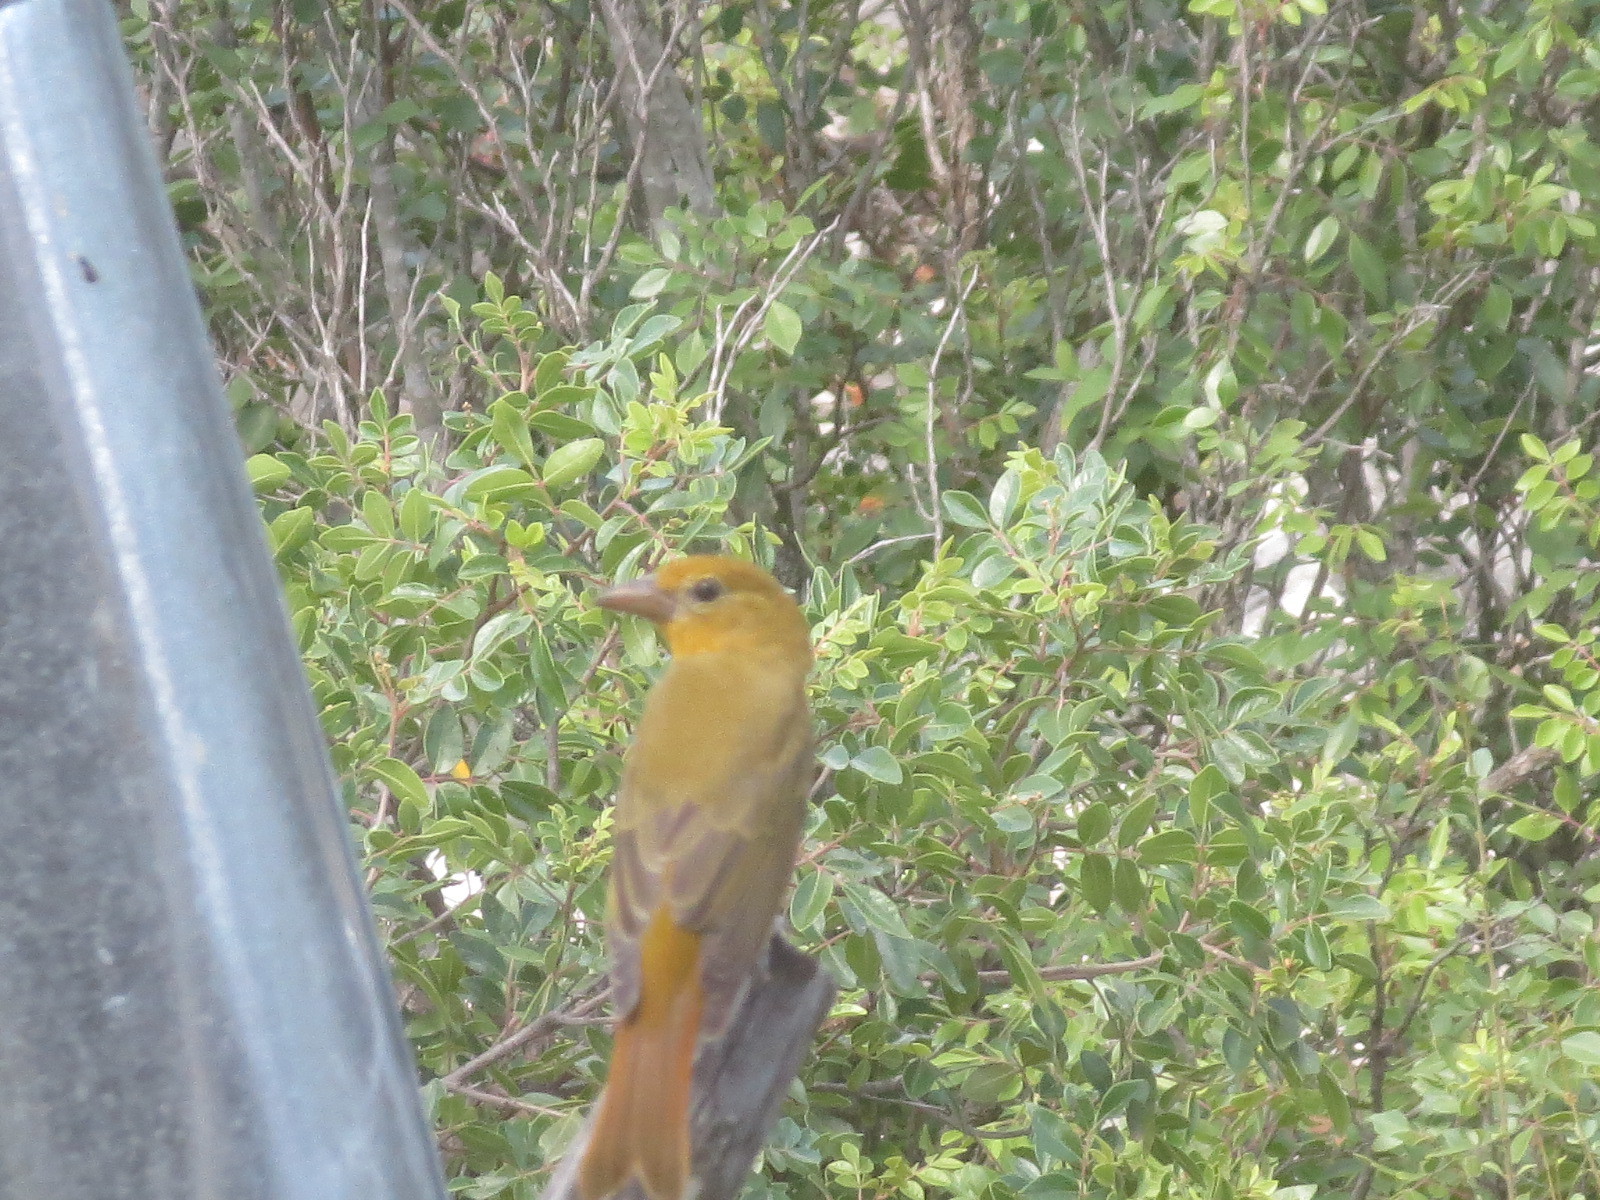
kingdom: Animalia
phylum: Chordata
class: Aves
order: Passeriformes
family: Cardinalidae
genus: Piranga
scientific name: Piranga rubra
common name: Summer tanager
